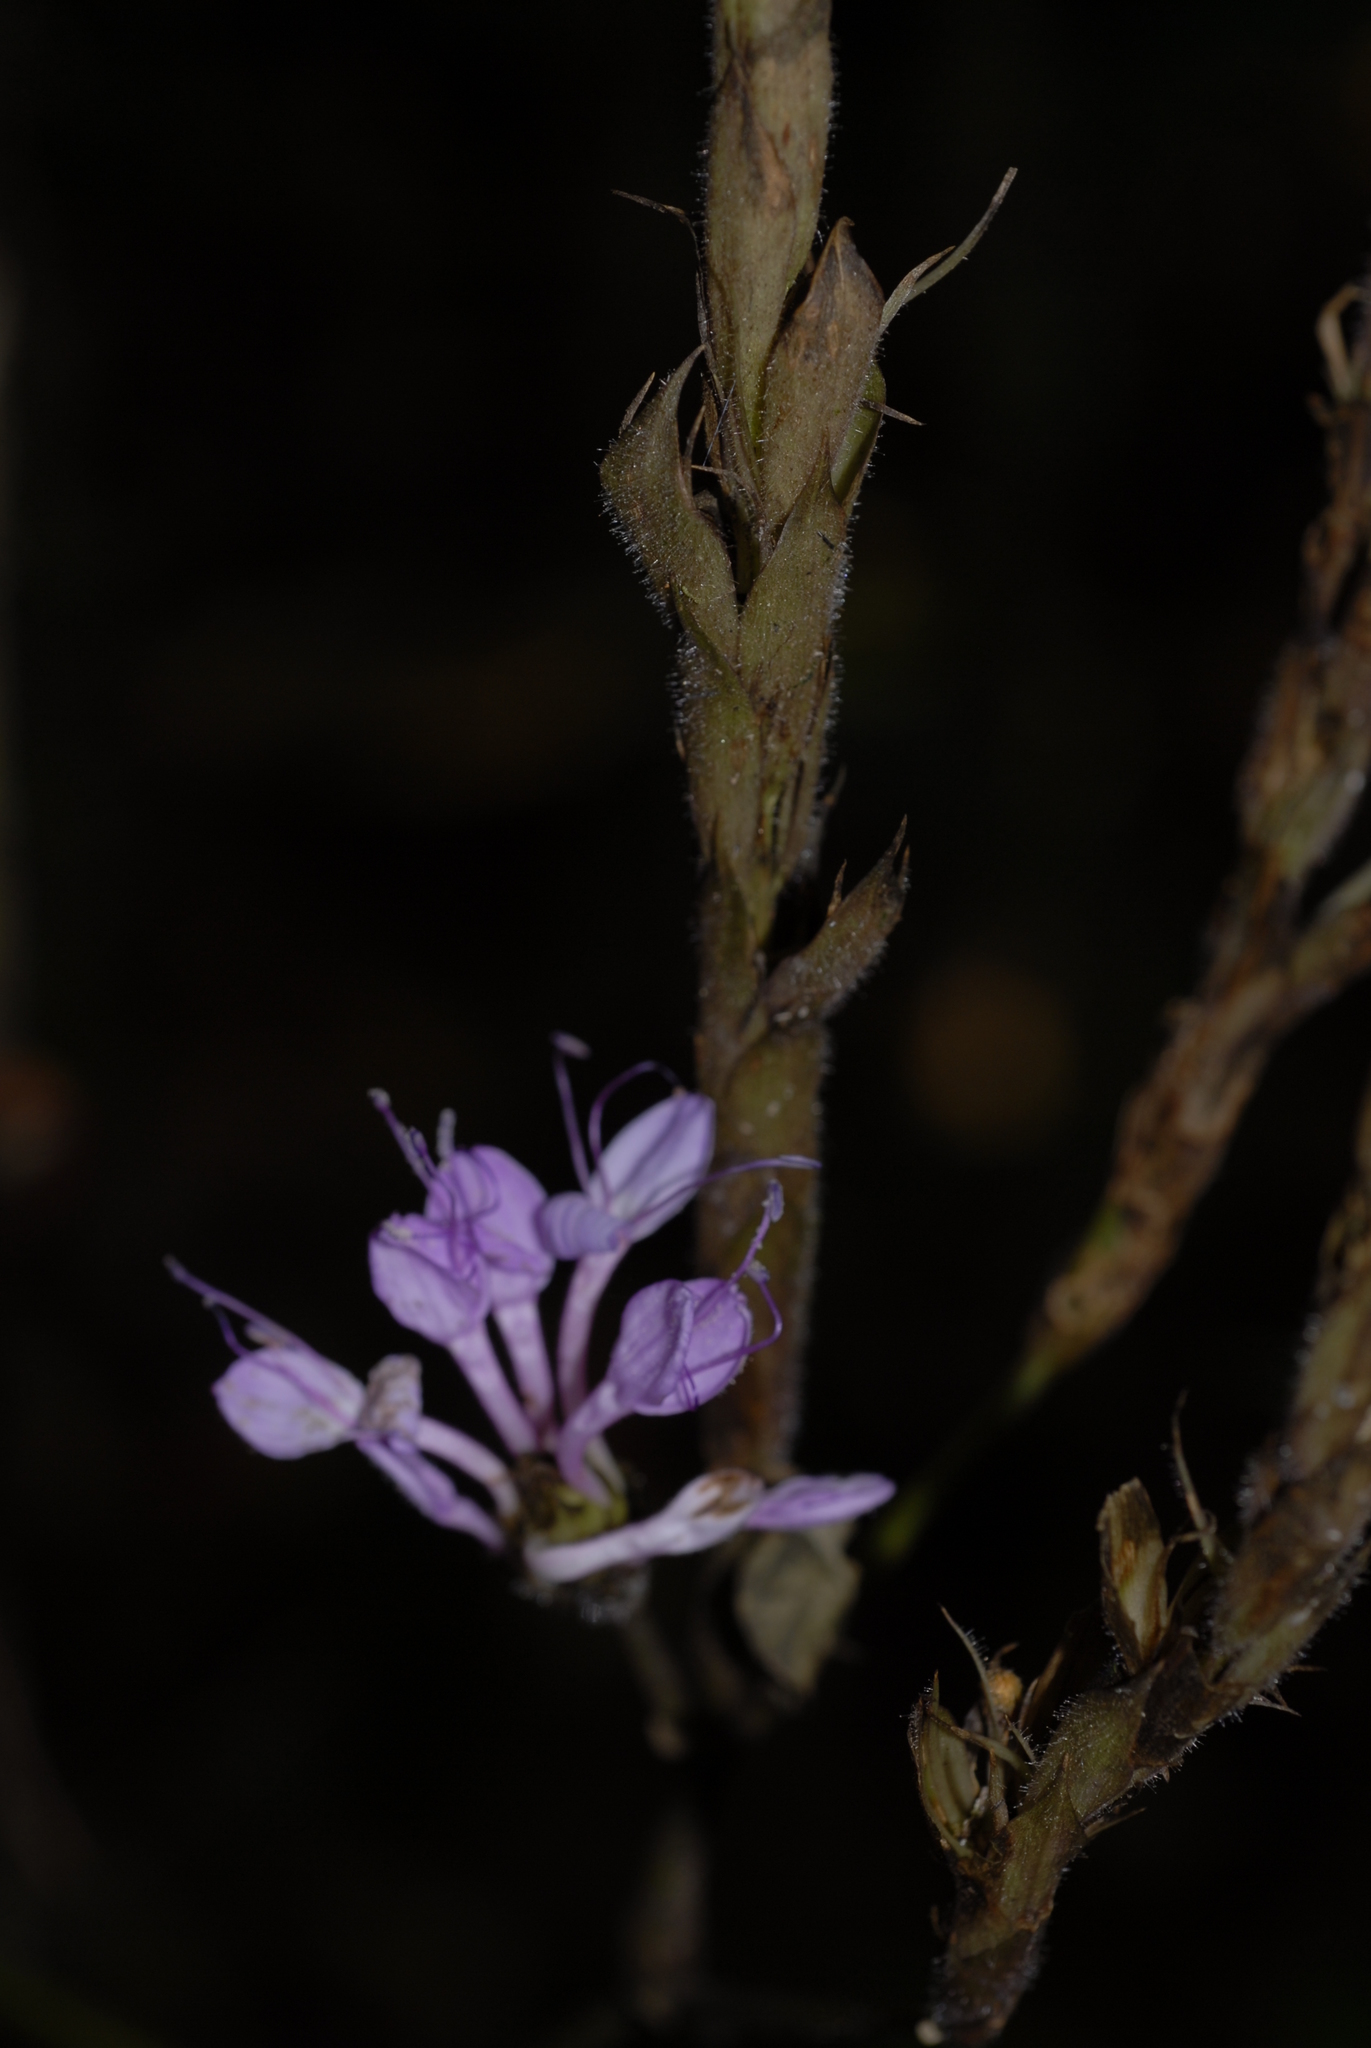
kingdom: Plantae
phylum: Tracheophyta
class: Magnoliopsida
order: Lamiales
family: Acanthaceae
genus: Brachystephanus
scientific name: Brachystephanus africanus
